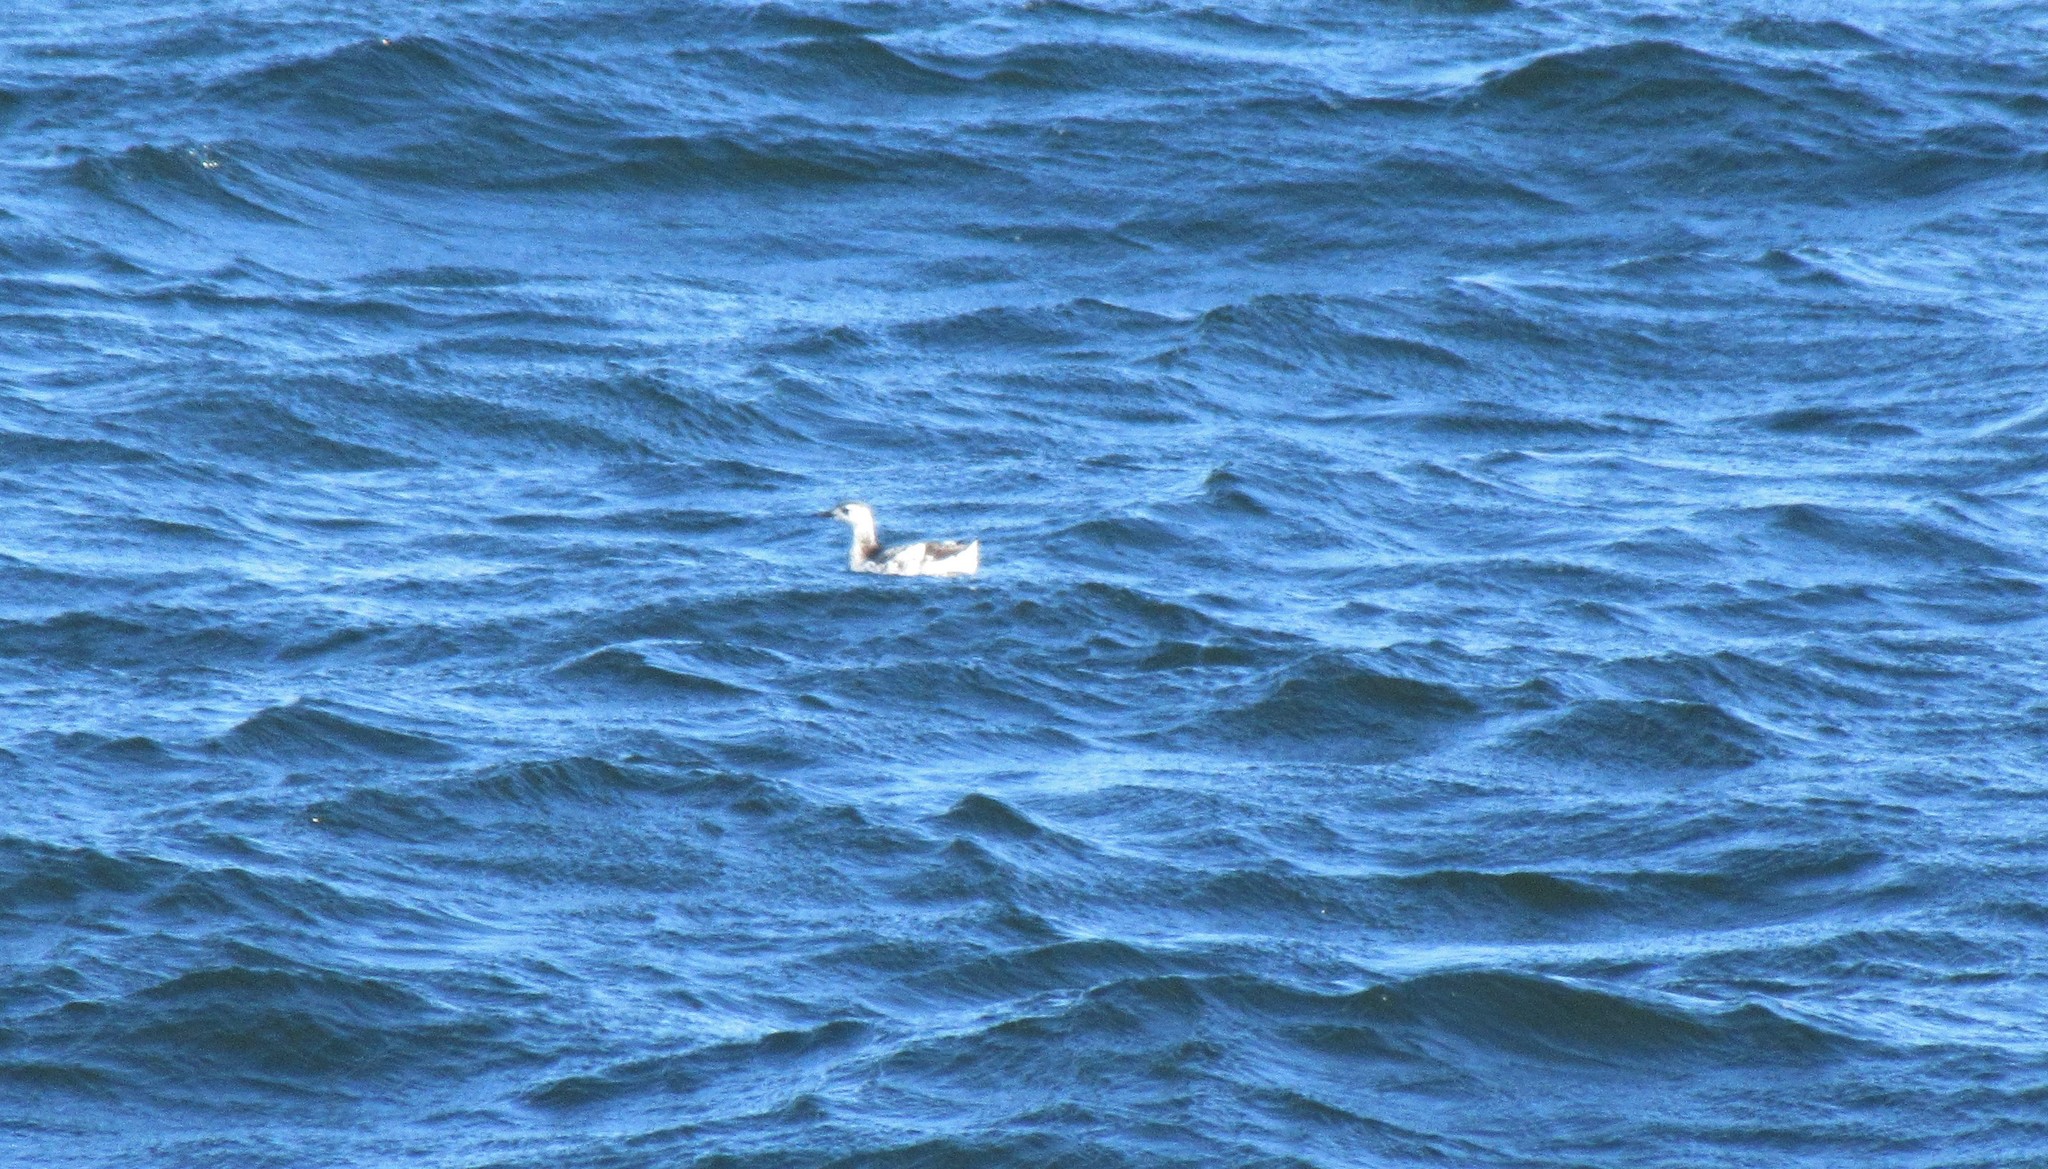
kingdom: Animalia
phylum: Chordata
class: Aves
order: Charadriiformes
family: Alcidae
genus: Cepphus
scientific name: Cepphus grylle
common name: Black guillemot
